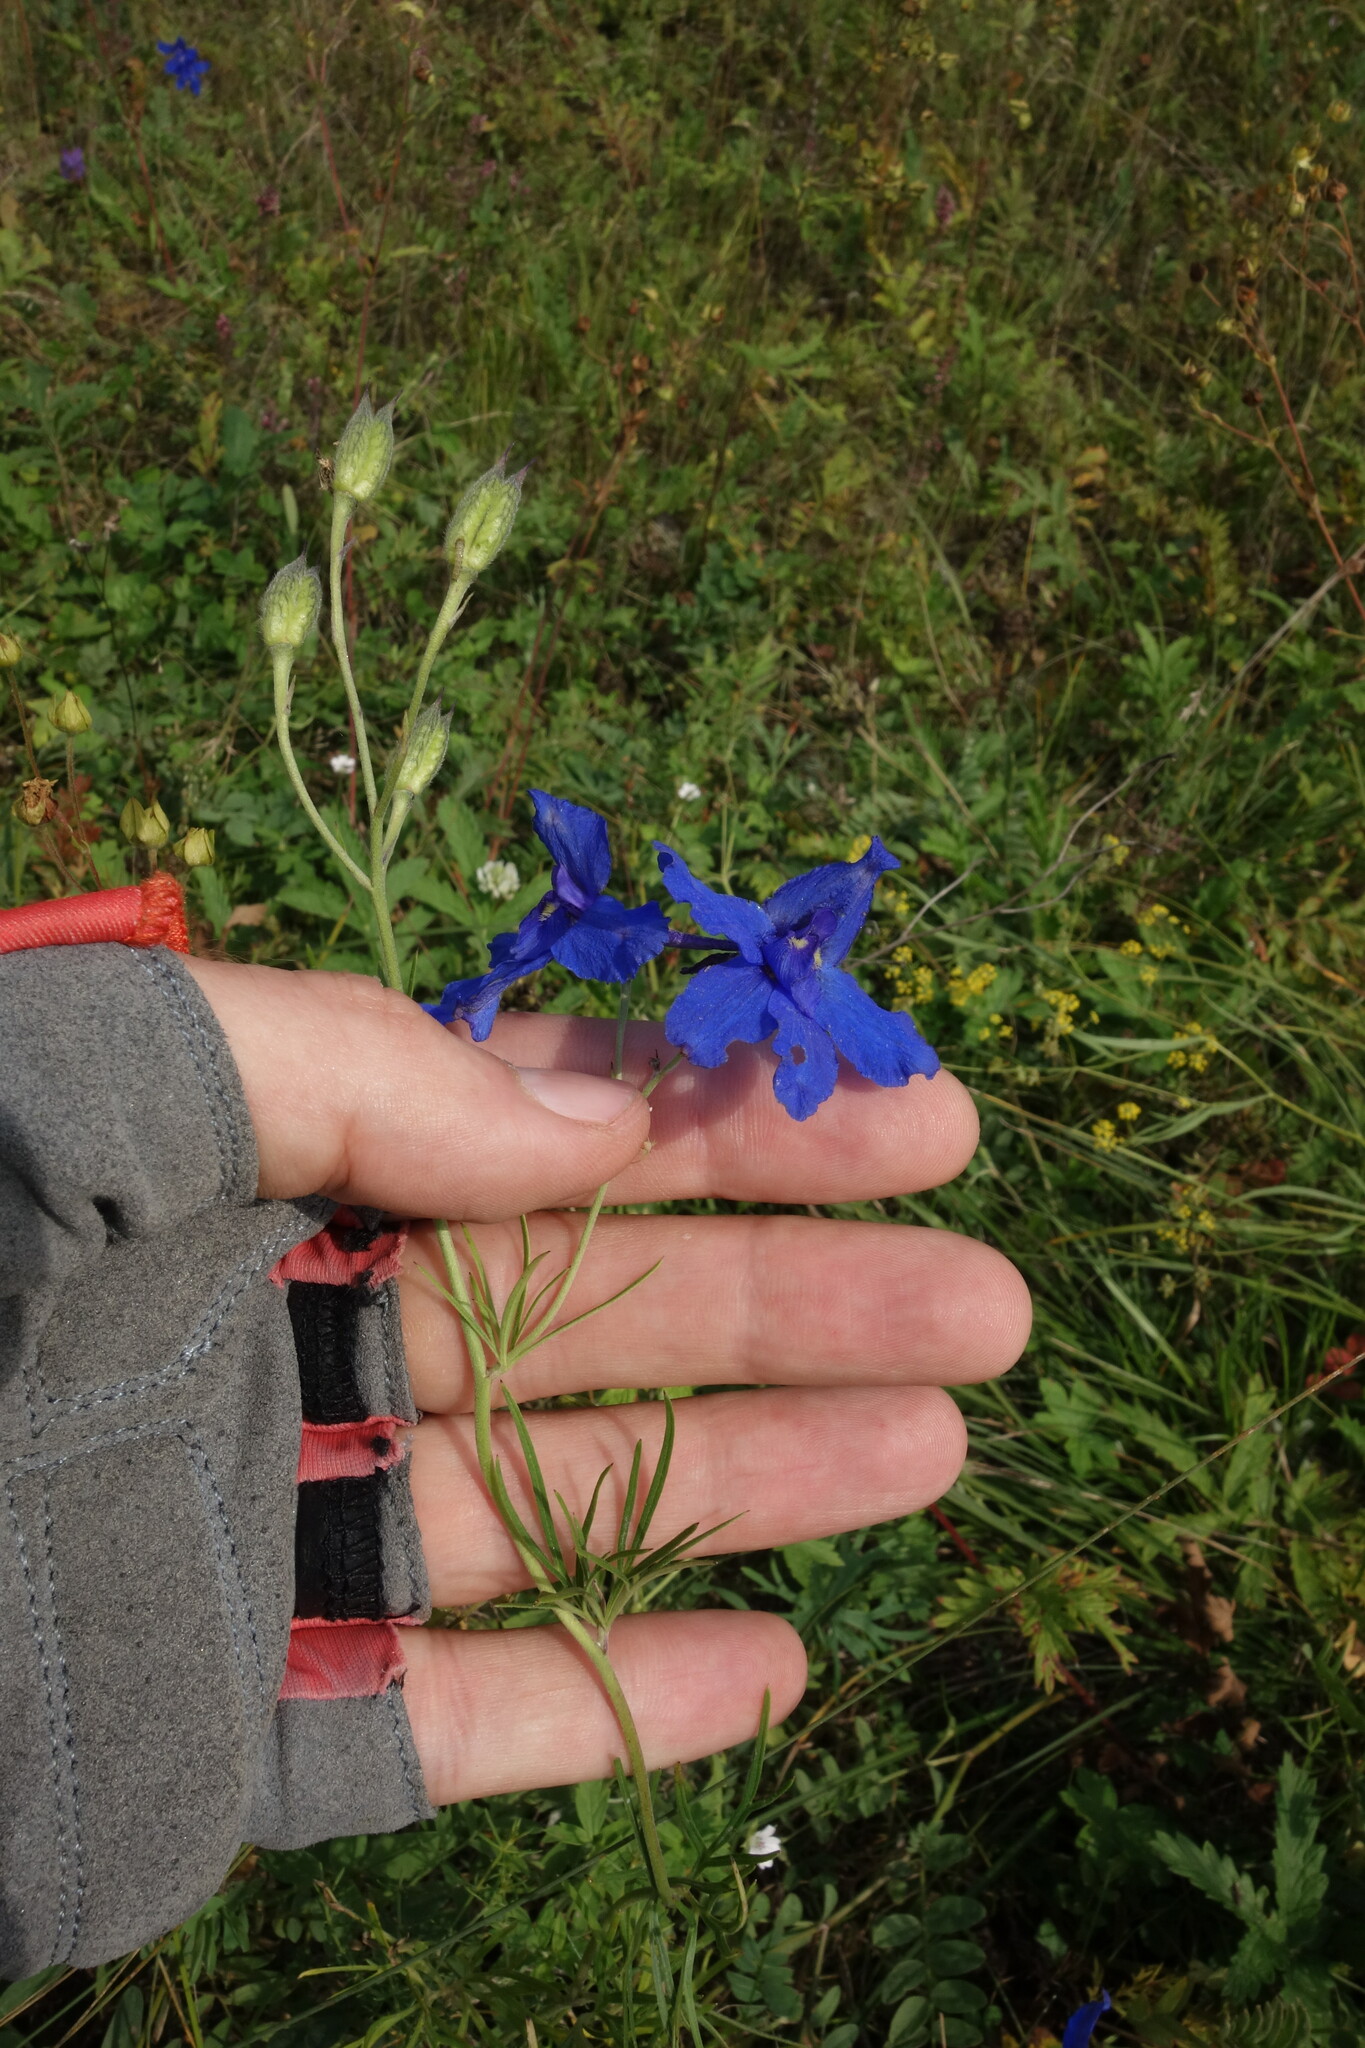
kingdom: Plantae
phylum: Tracheophyta
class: Magnoliopsida
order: Ranunculales
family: Ranunculaceae
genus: Delphinium
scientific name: Delphinium grandiflorum
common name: Siberian larkspur
